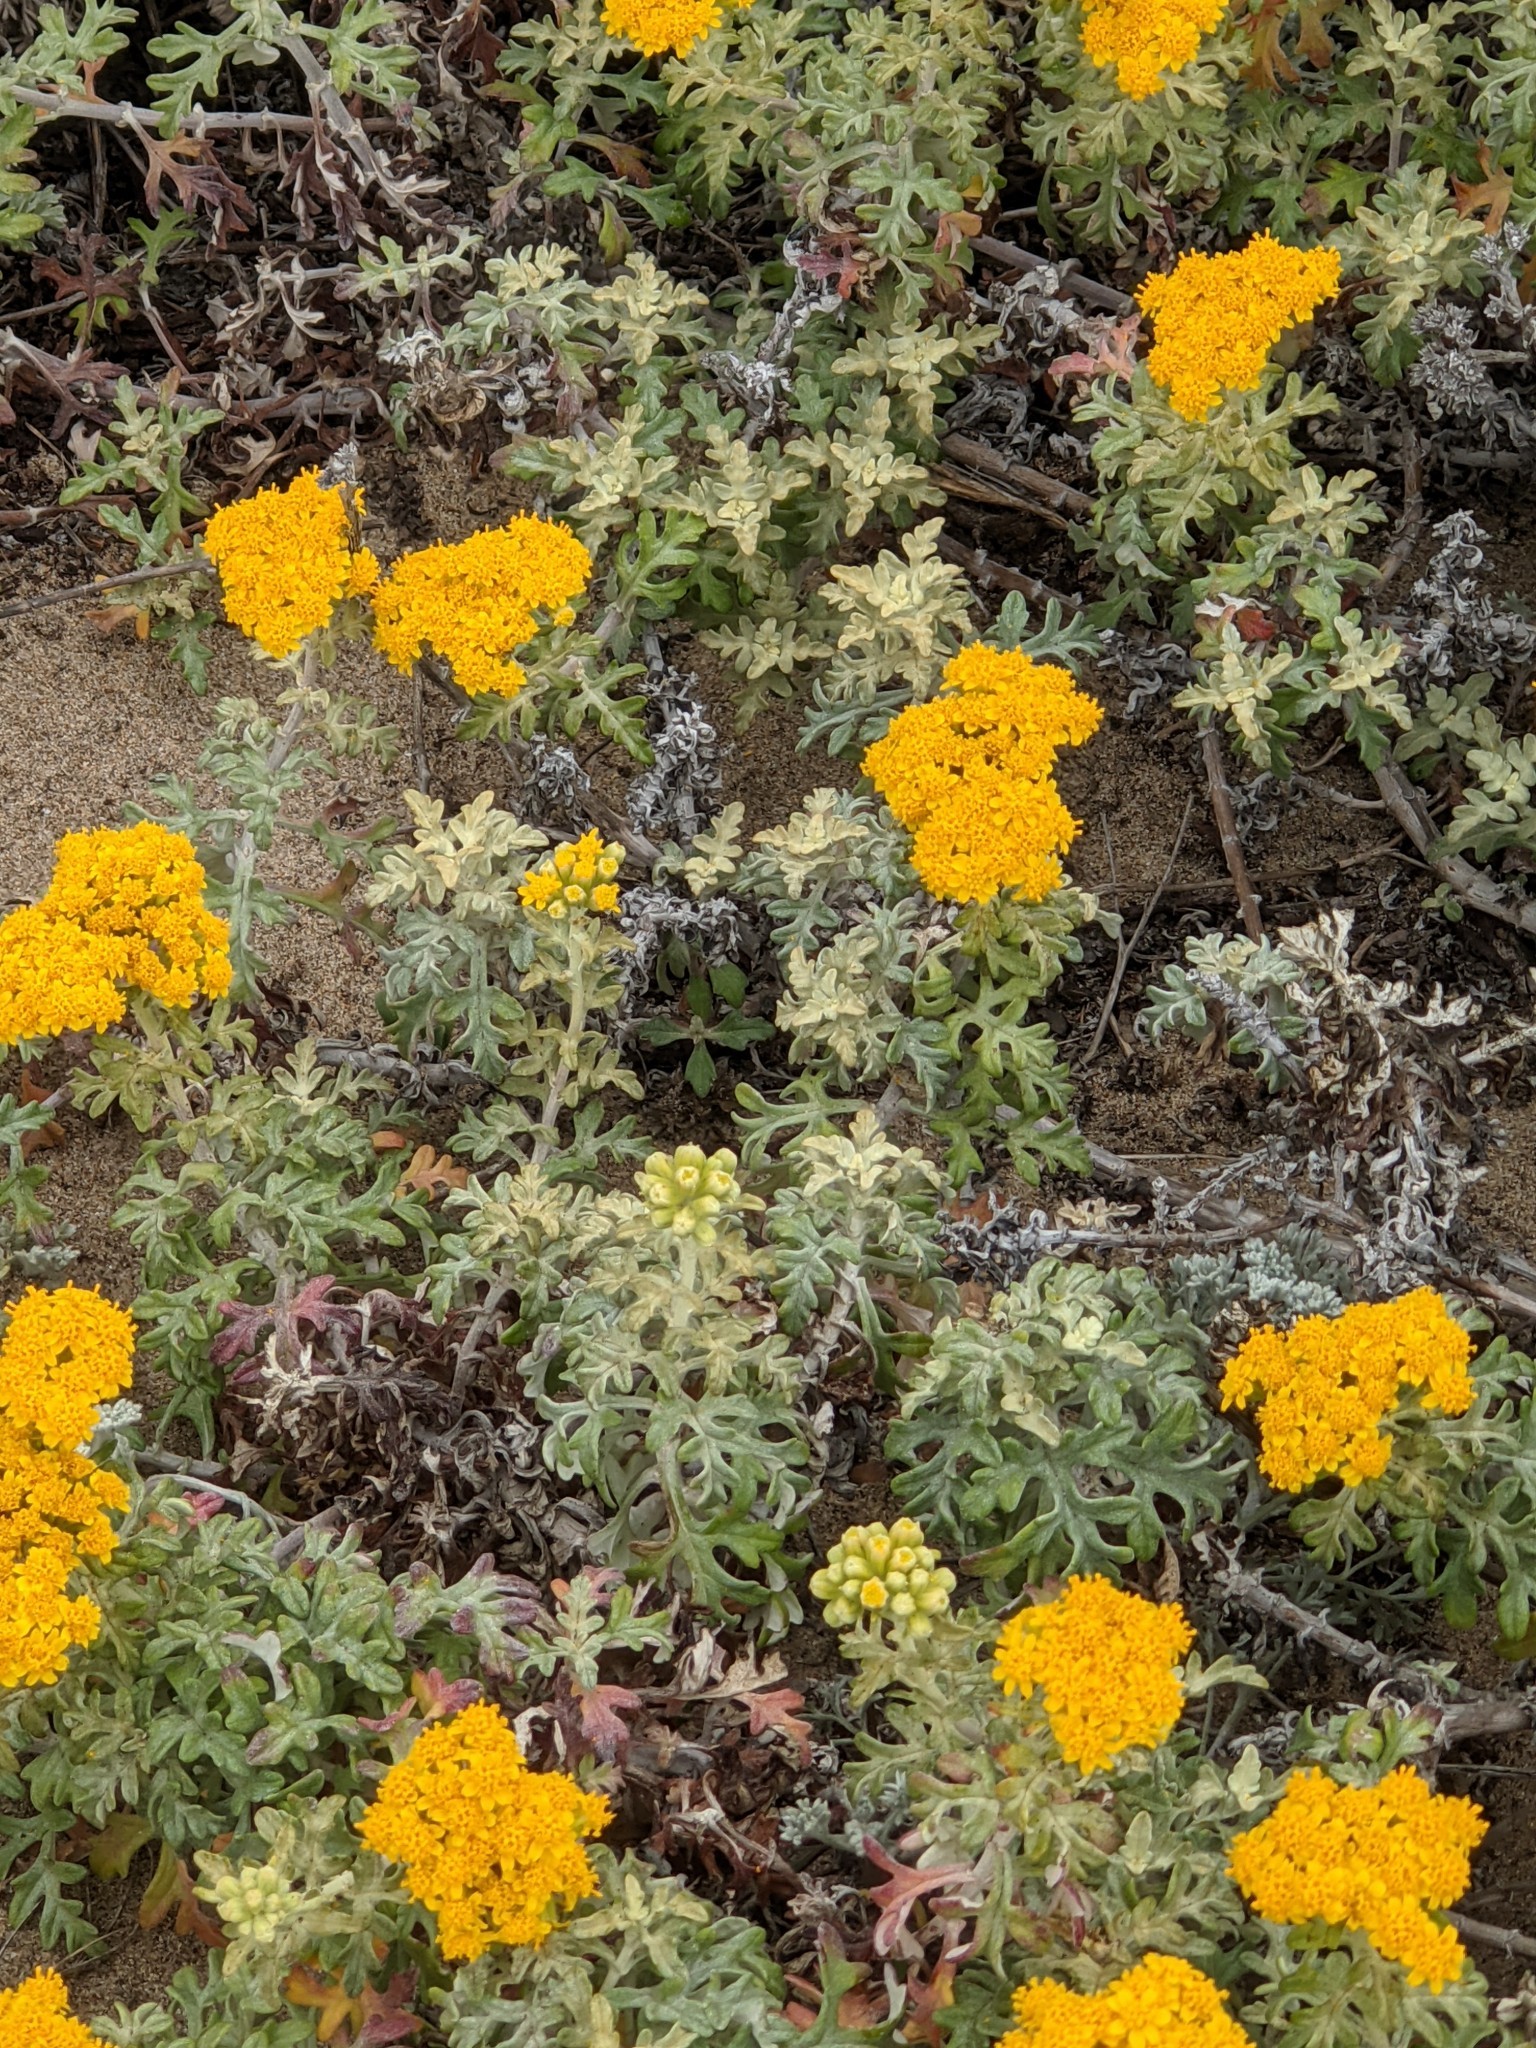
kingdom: Plantae
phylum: Tracheophyta
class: Magnoliopsida
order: Asterales
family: Asteraceae
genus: Eriophyllum
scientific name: Eriophyllum staechadifolium
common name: Lizardtail
